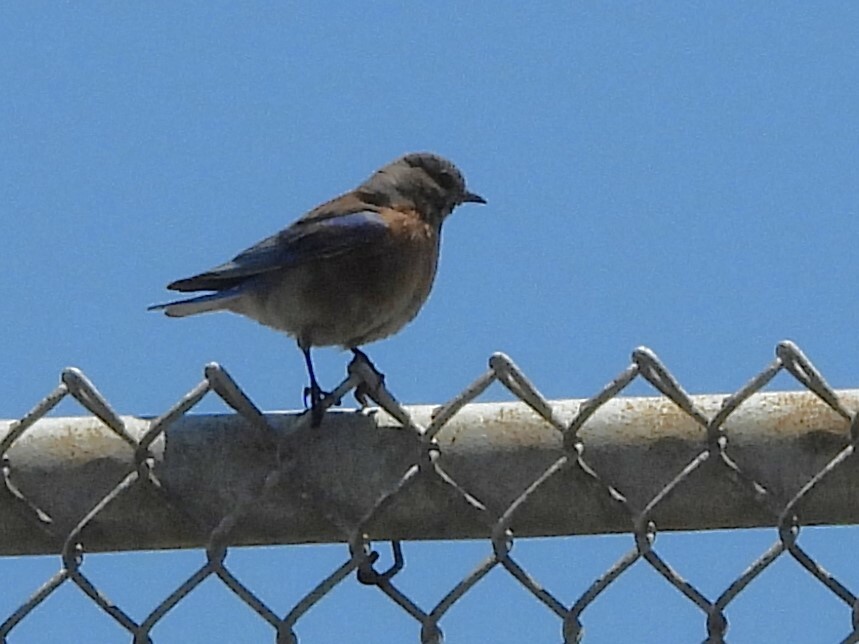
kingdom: Animalia
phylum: Chordata
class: Aves
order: Passeriformes
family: Turdidae
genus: Sialia
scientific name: Sialia mexicana
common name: Western bluebird
